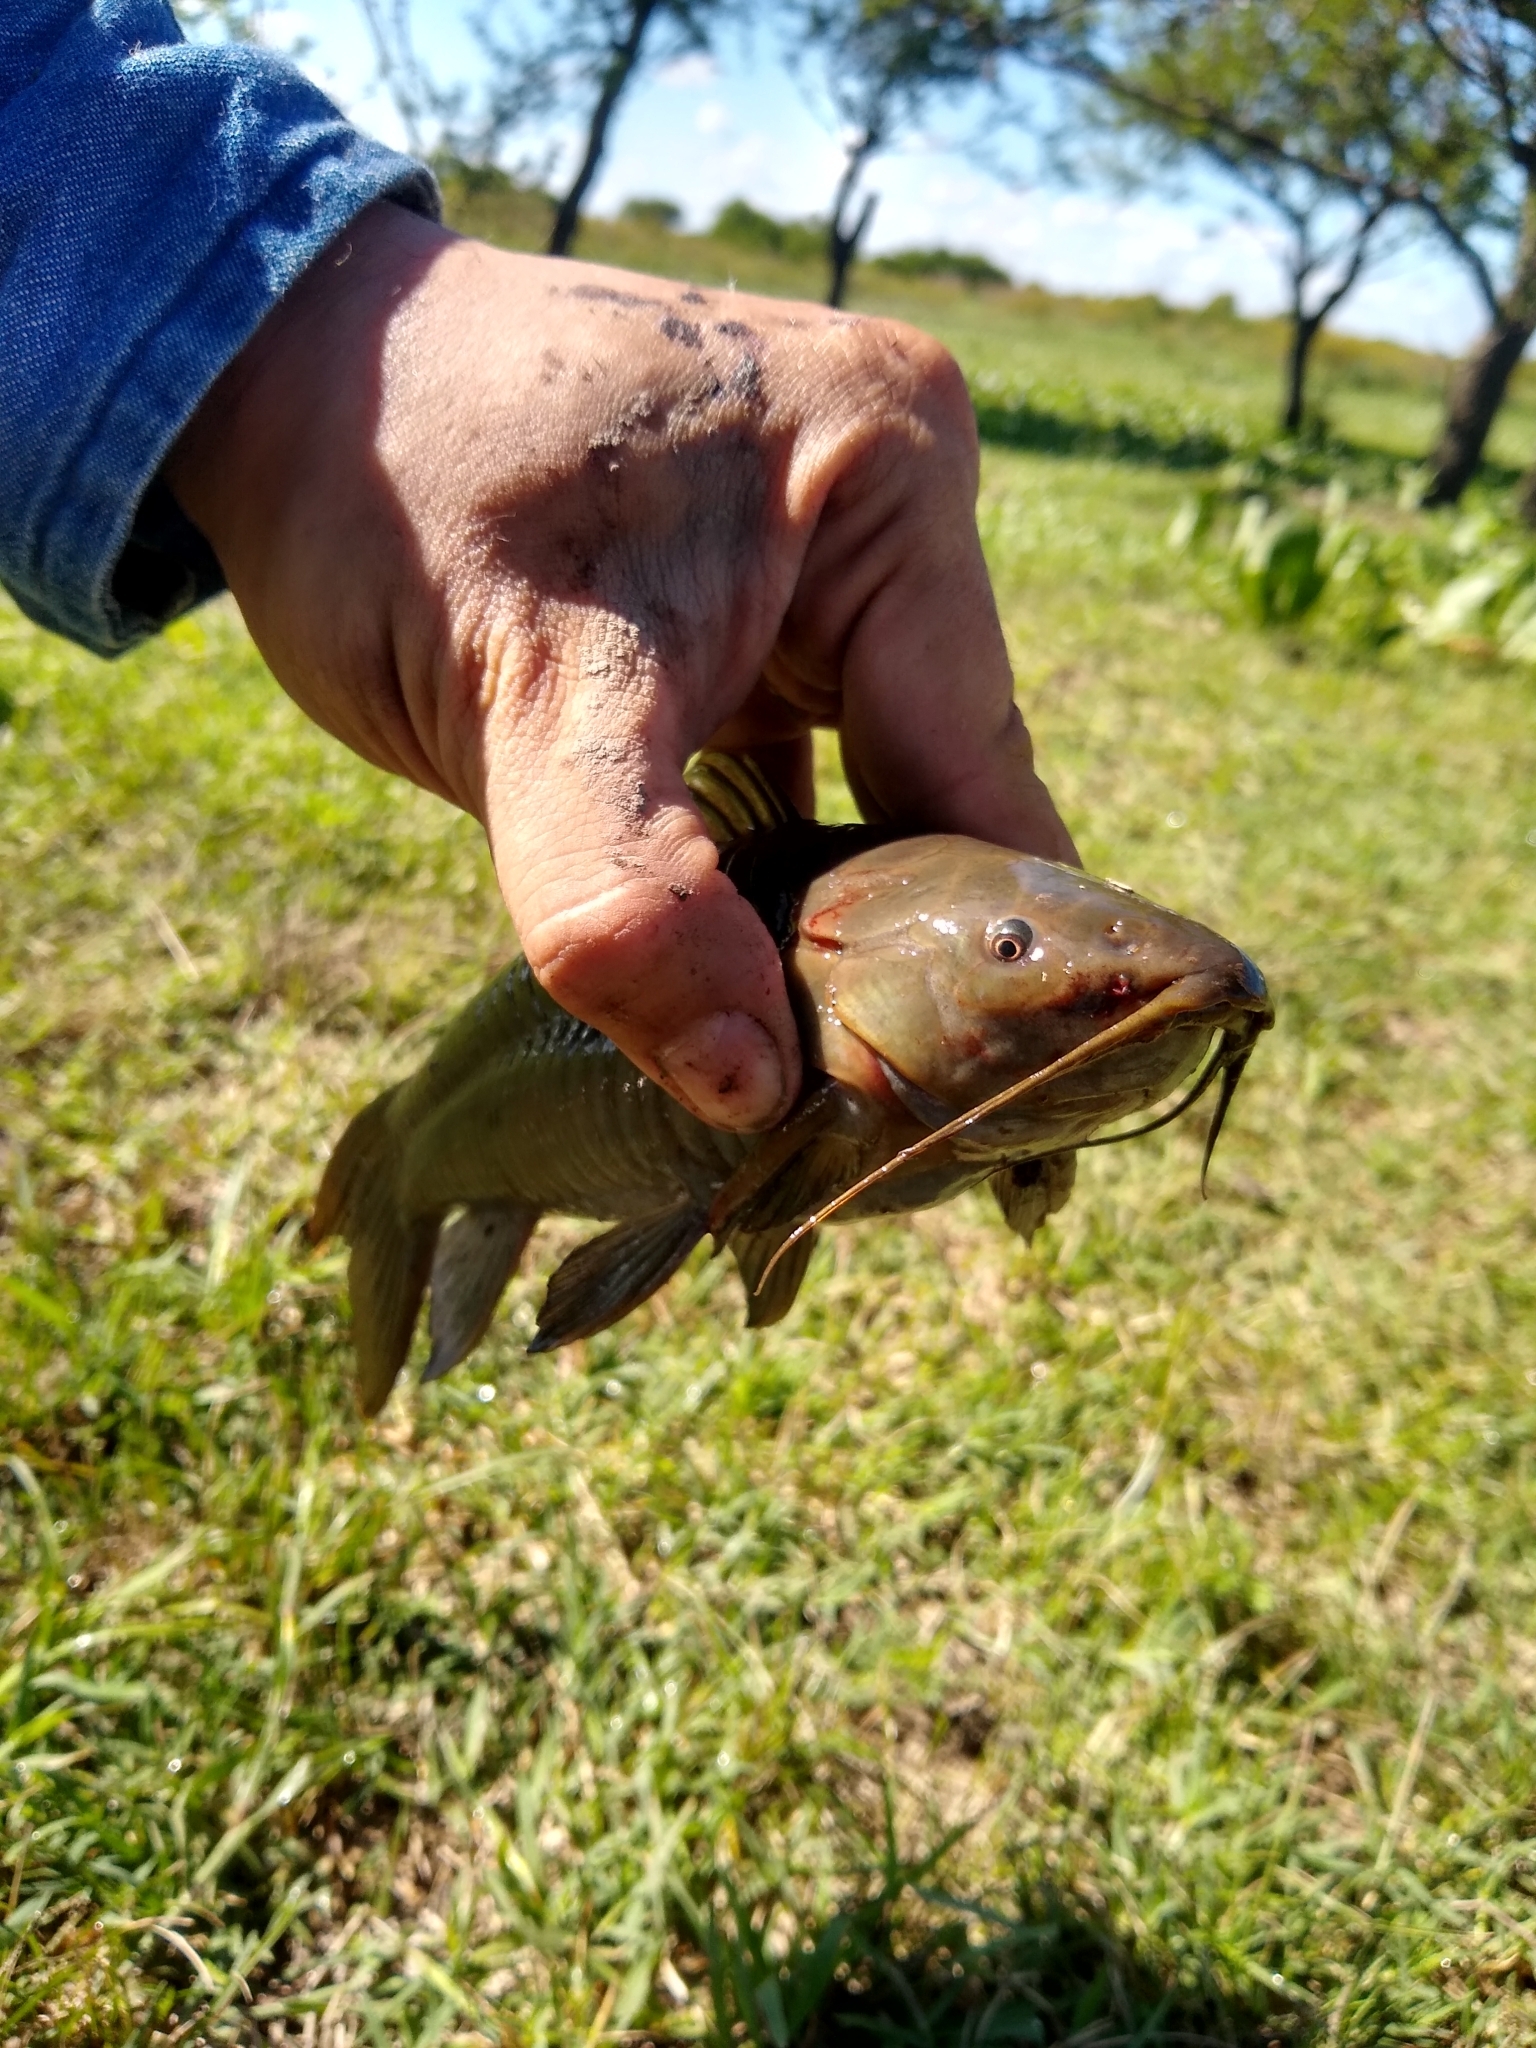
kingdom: Animalia
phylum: Chordata
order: Siluriformes
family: Callichthyidae
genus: Hoplosternum
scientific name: Hoplosternum littorale
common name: Brown hoplo
